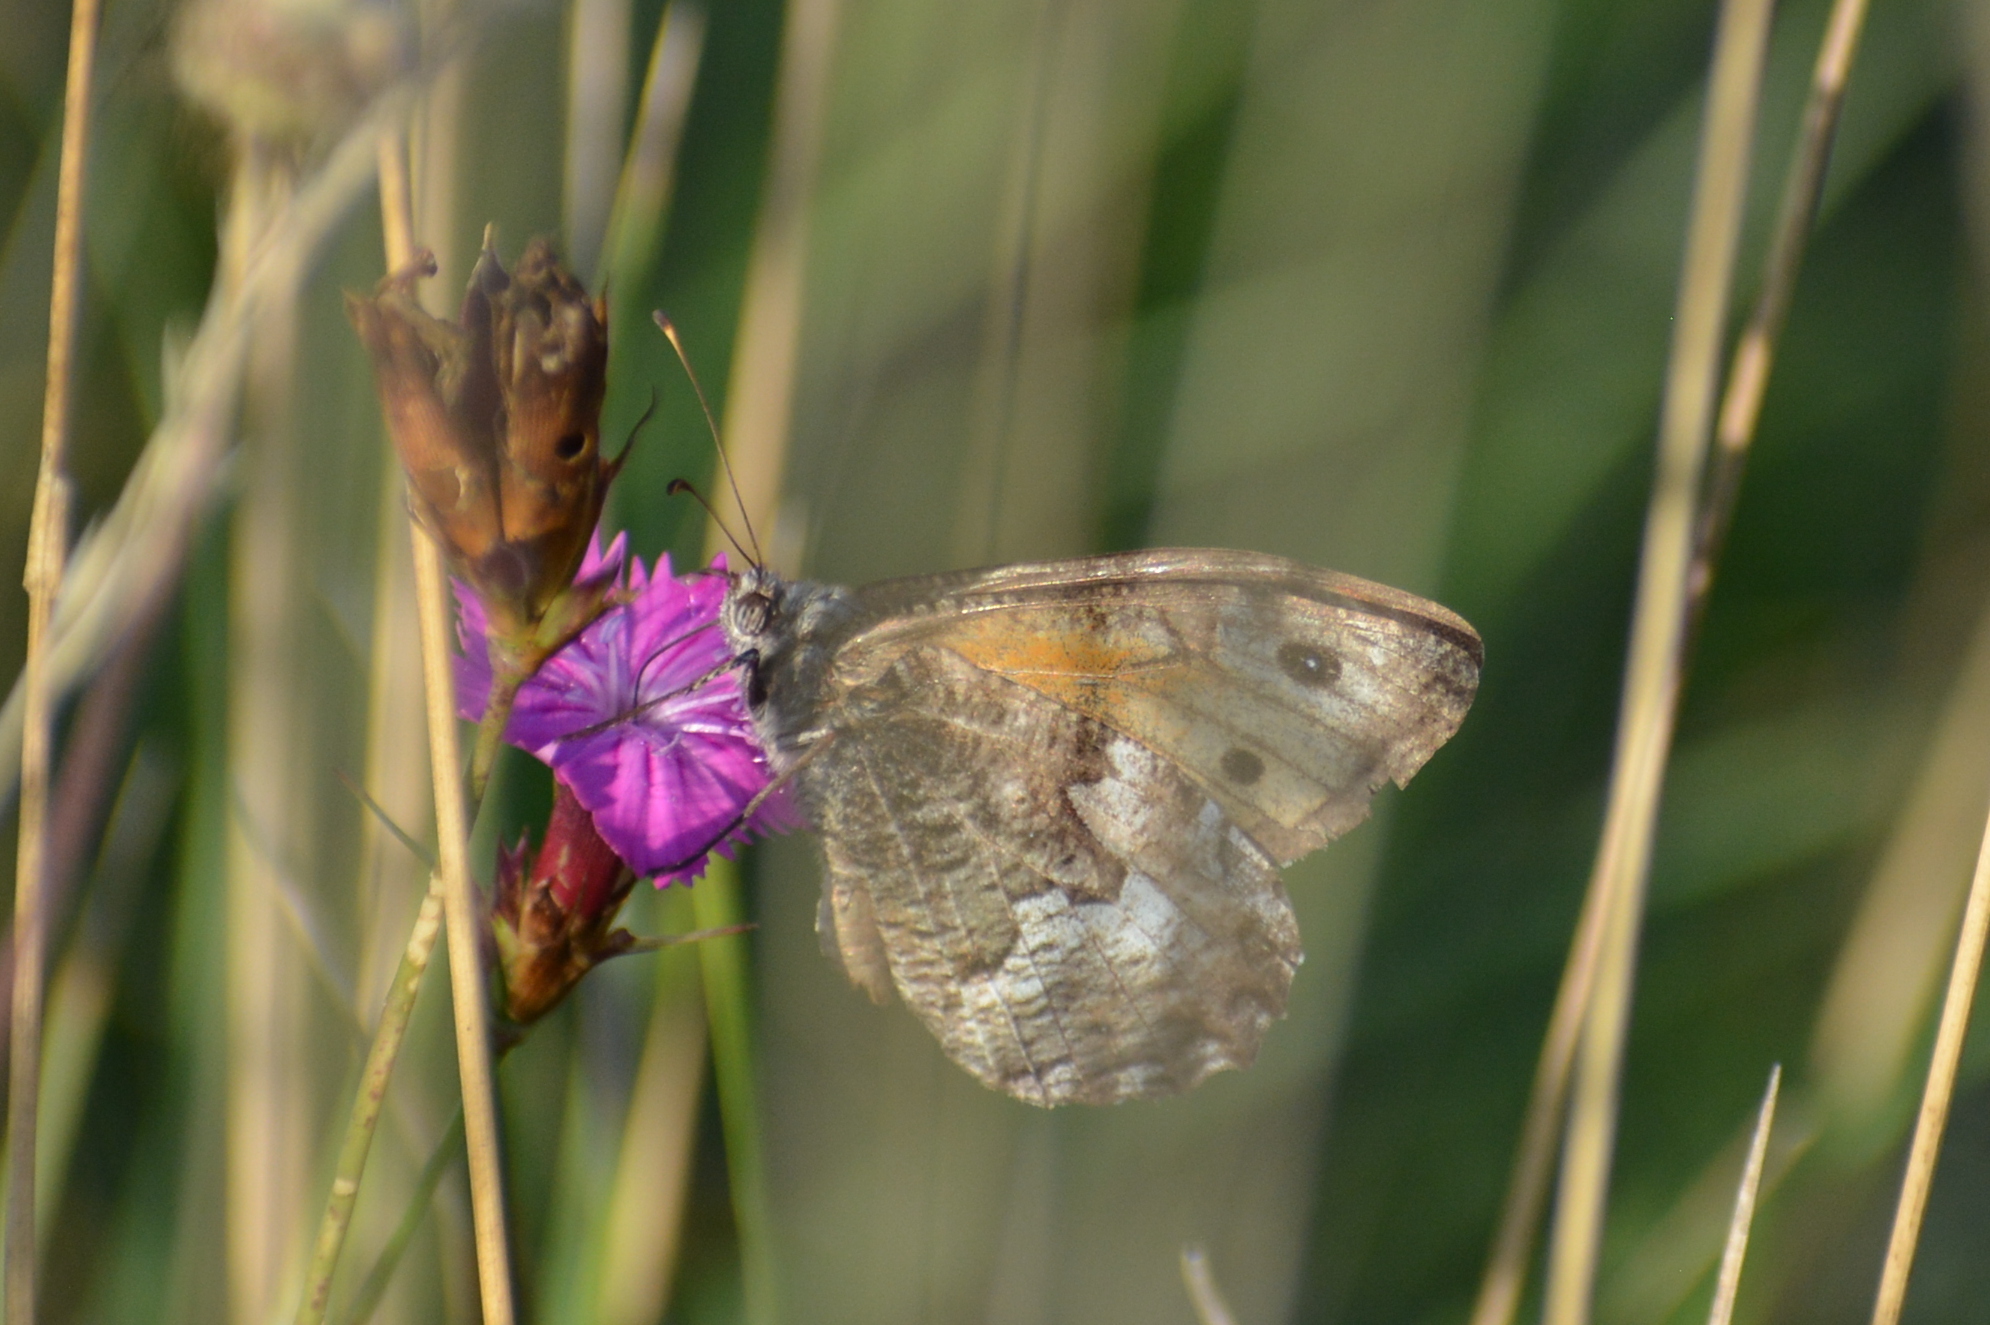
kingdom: Animalia
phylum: Arthropoda
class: Insecta
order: Lepidoptera
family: Nymphalidae
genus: Hipparchia
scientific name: Hipparchia semele
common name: Grayling
